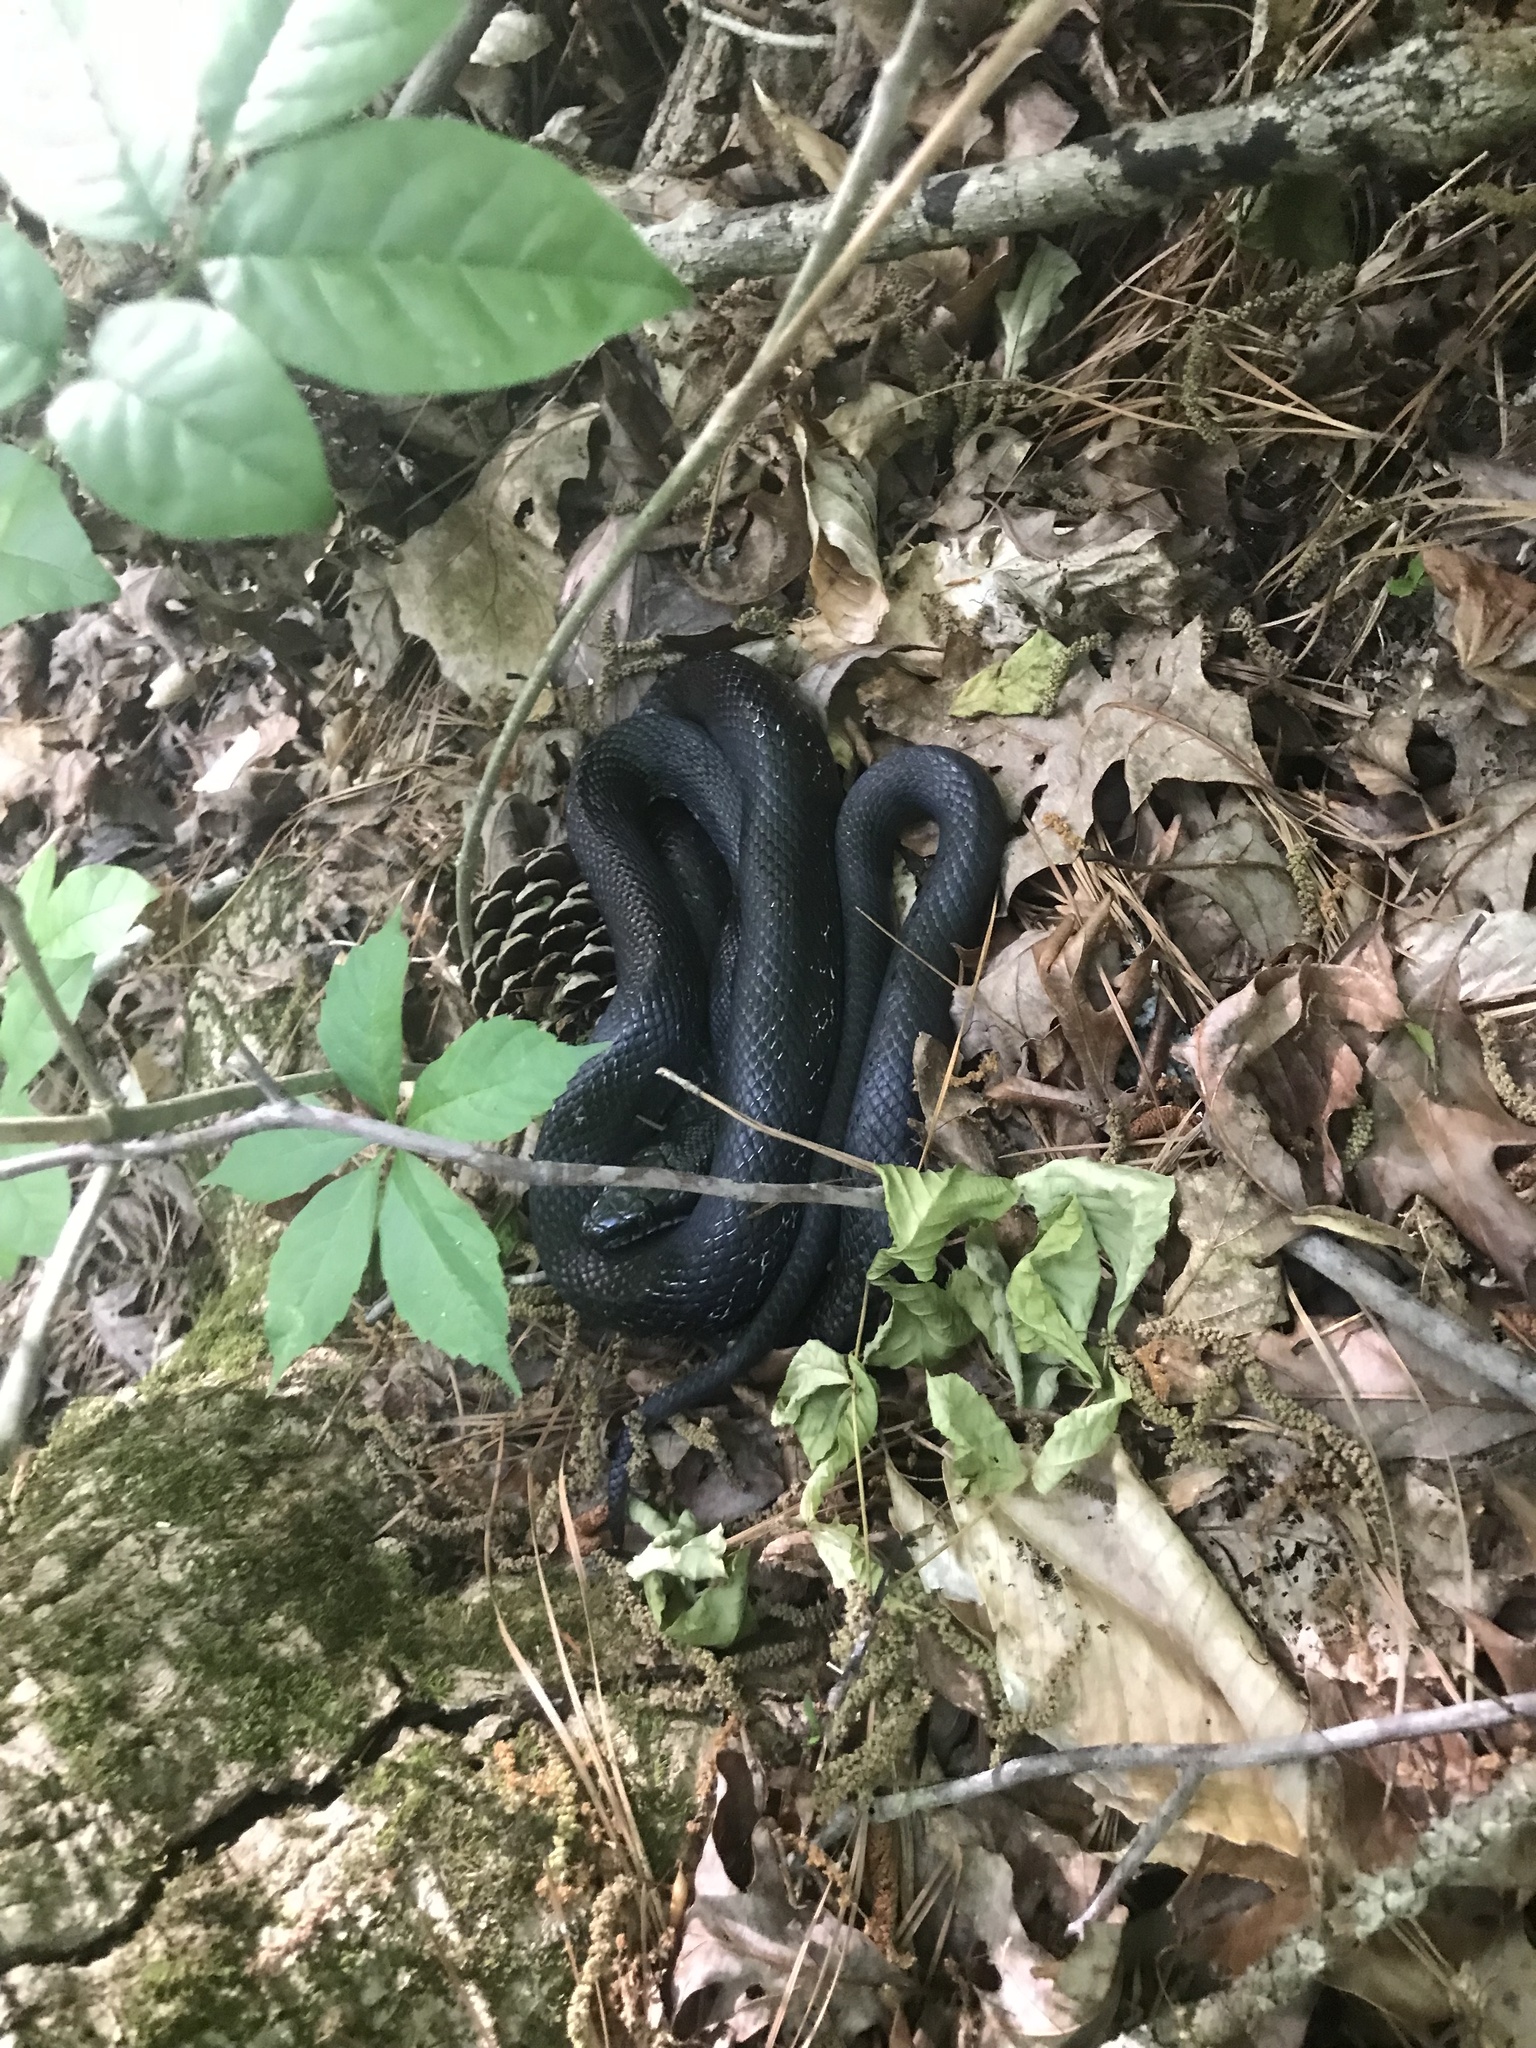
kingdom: Animalia
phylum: Chordata
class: Squamata
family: Colubridae
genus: Pantherophis
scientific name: Pantherophis
